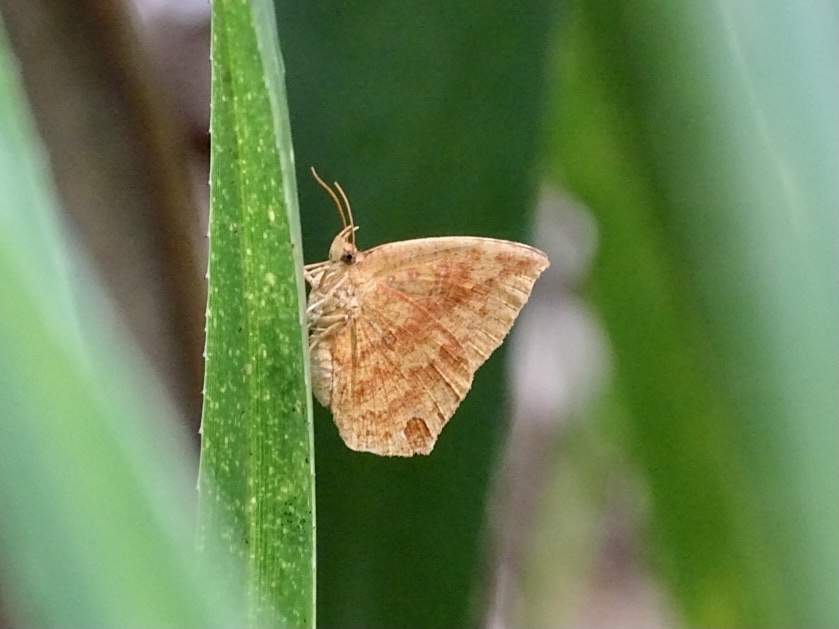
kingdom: Animalia
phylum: Arthropoda
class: Insecta
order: Lepidoptera
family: Callidulidae
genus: Tetragonus
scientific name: Tetragonus catamitus
